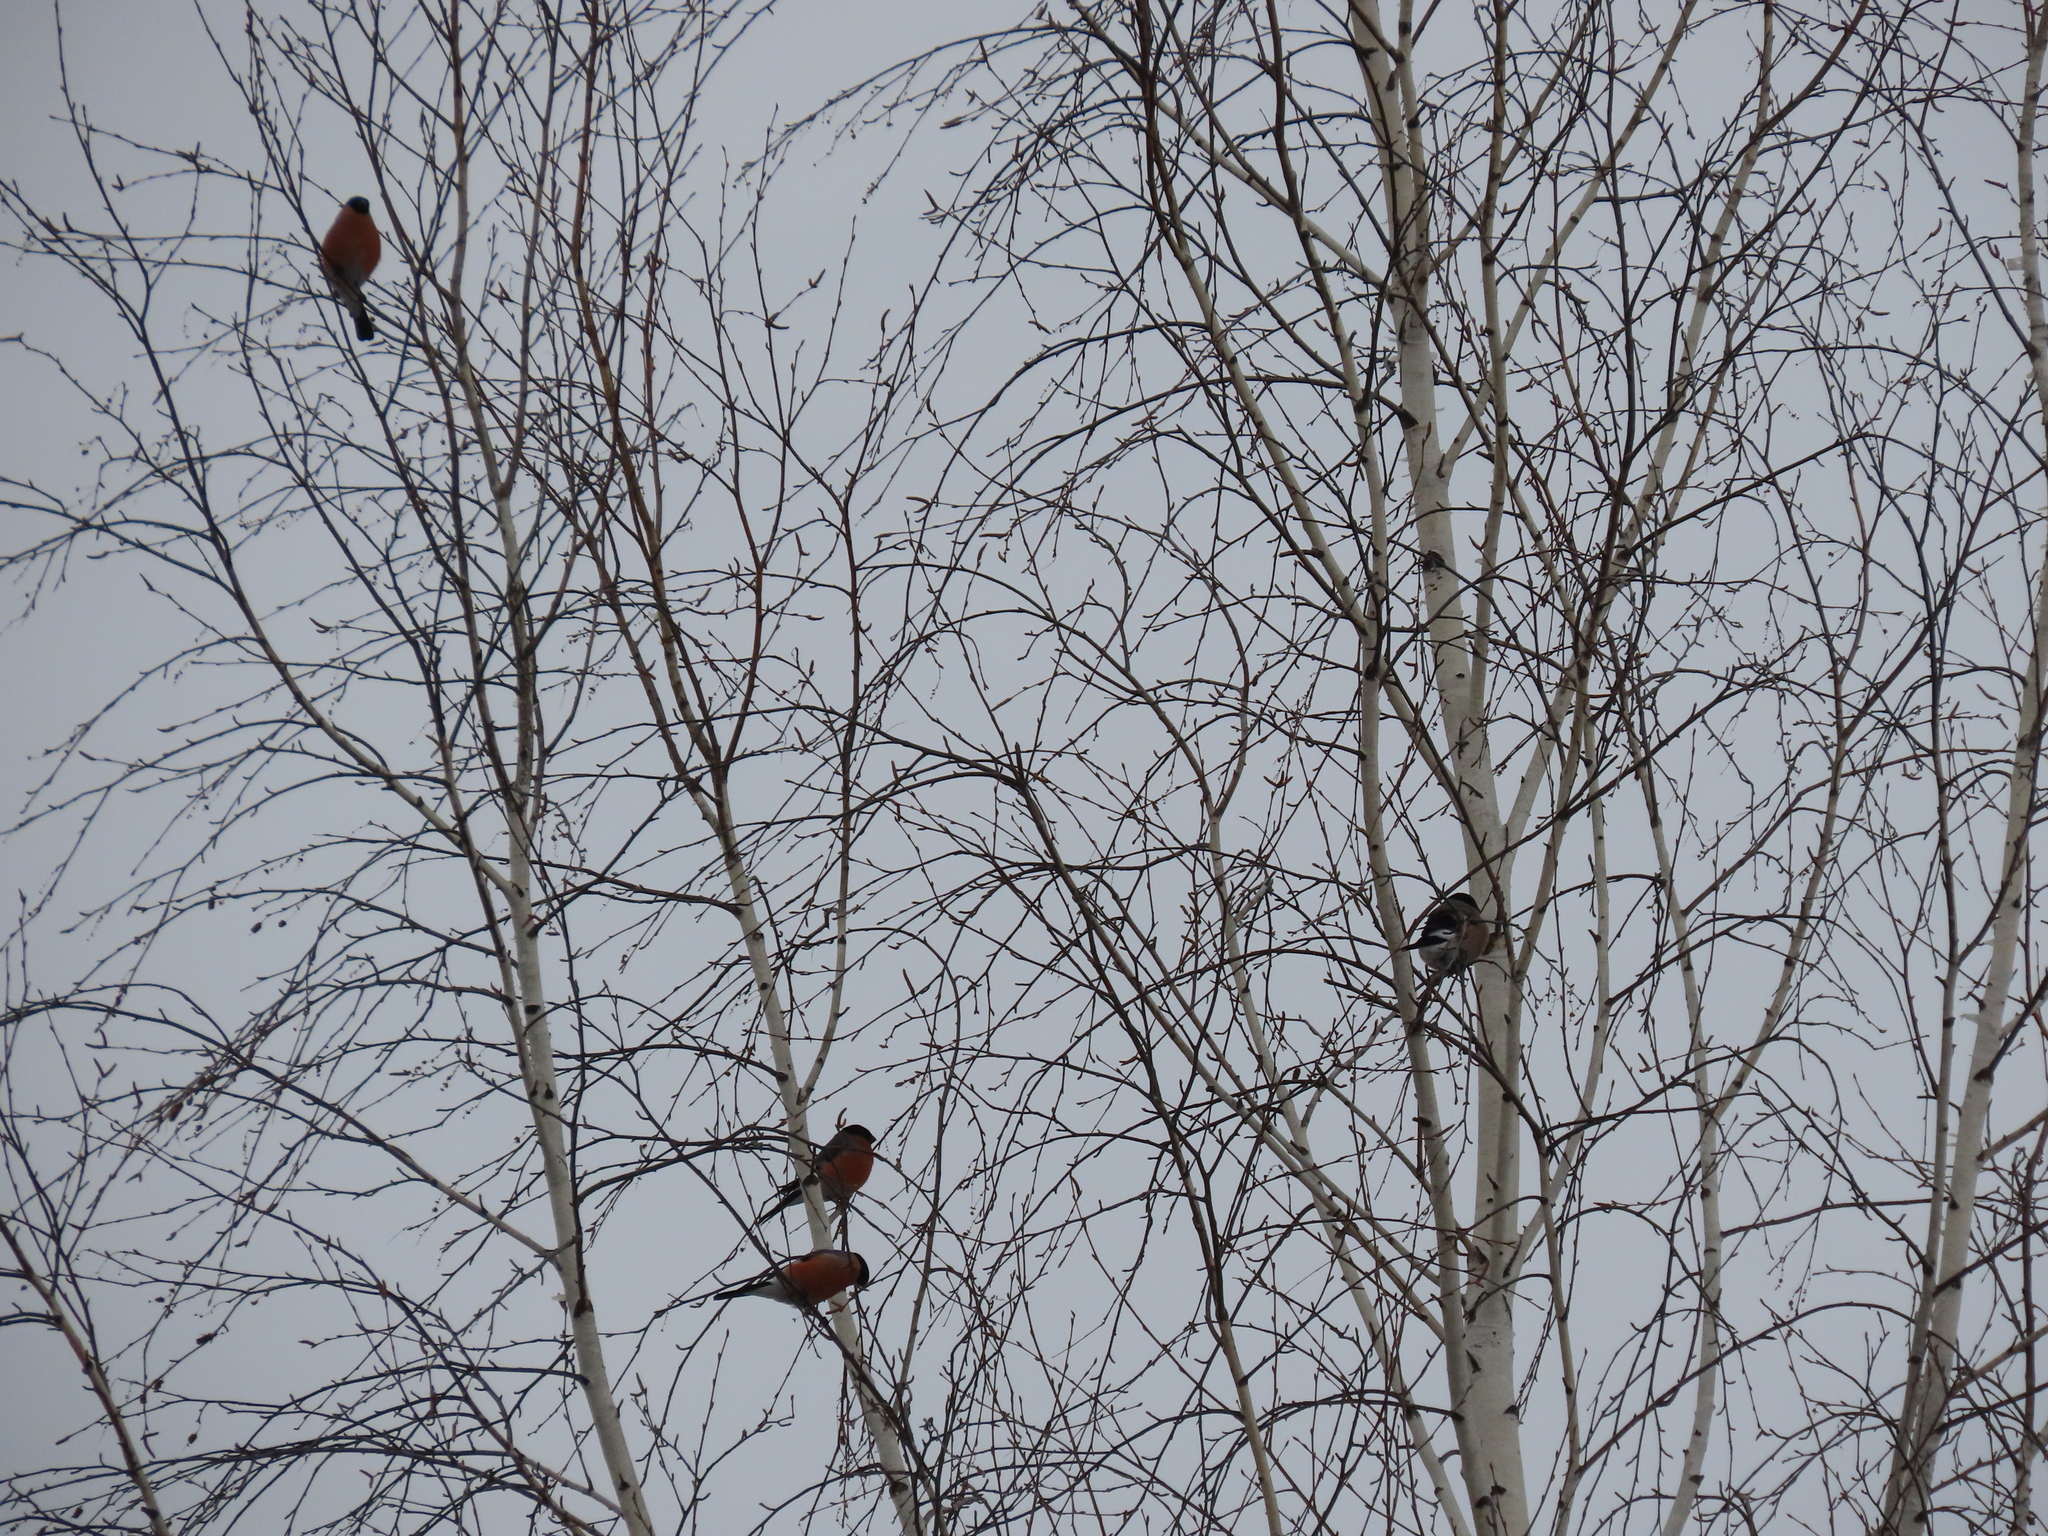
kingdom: Animalia
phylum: Chordata
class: Aves
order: Passeriformes
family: Fringillidae
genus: Pyrrhula
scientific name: Pyrrhula pyrrhula
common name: Eurasian bullfinch
